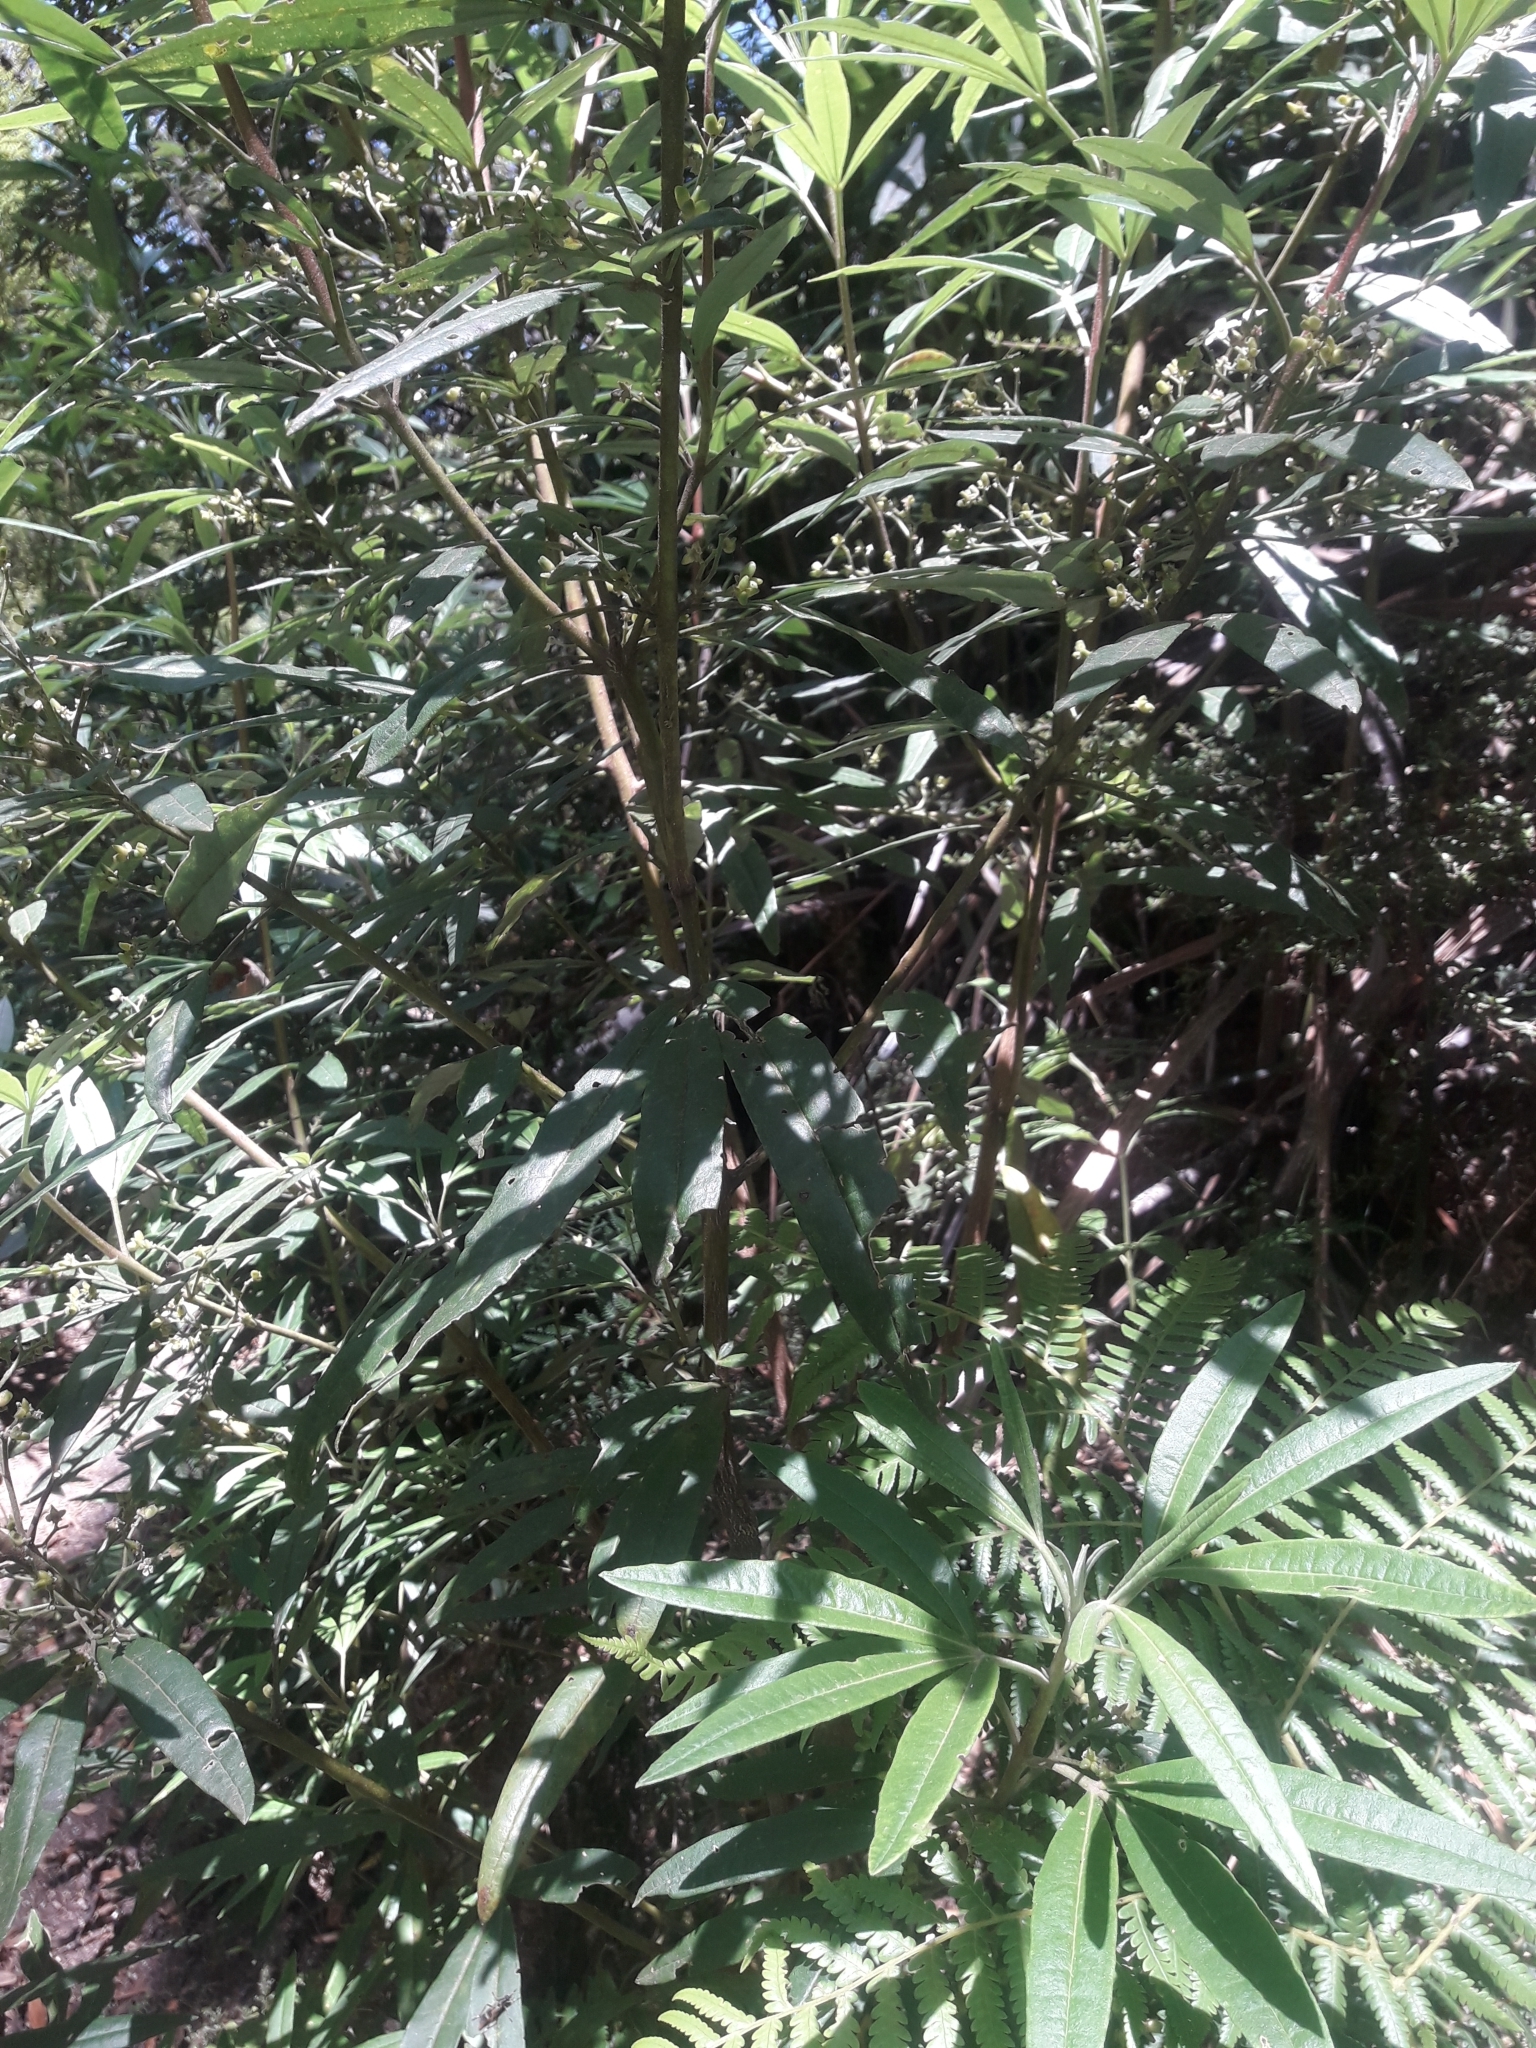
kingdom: Plantae
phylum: Tracheophyta
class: Magnoliopsida
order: Sapindales
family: Rutaceae
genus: Zieria
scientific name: Zieria arborescens
